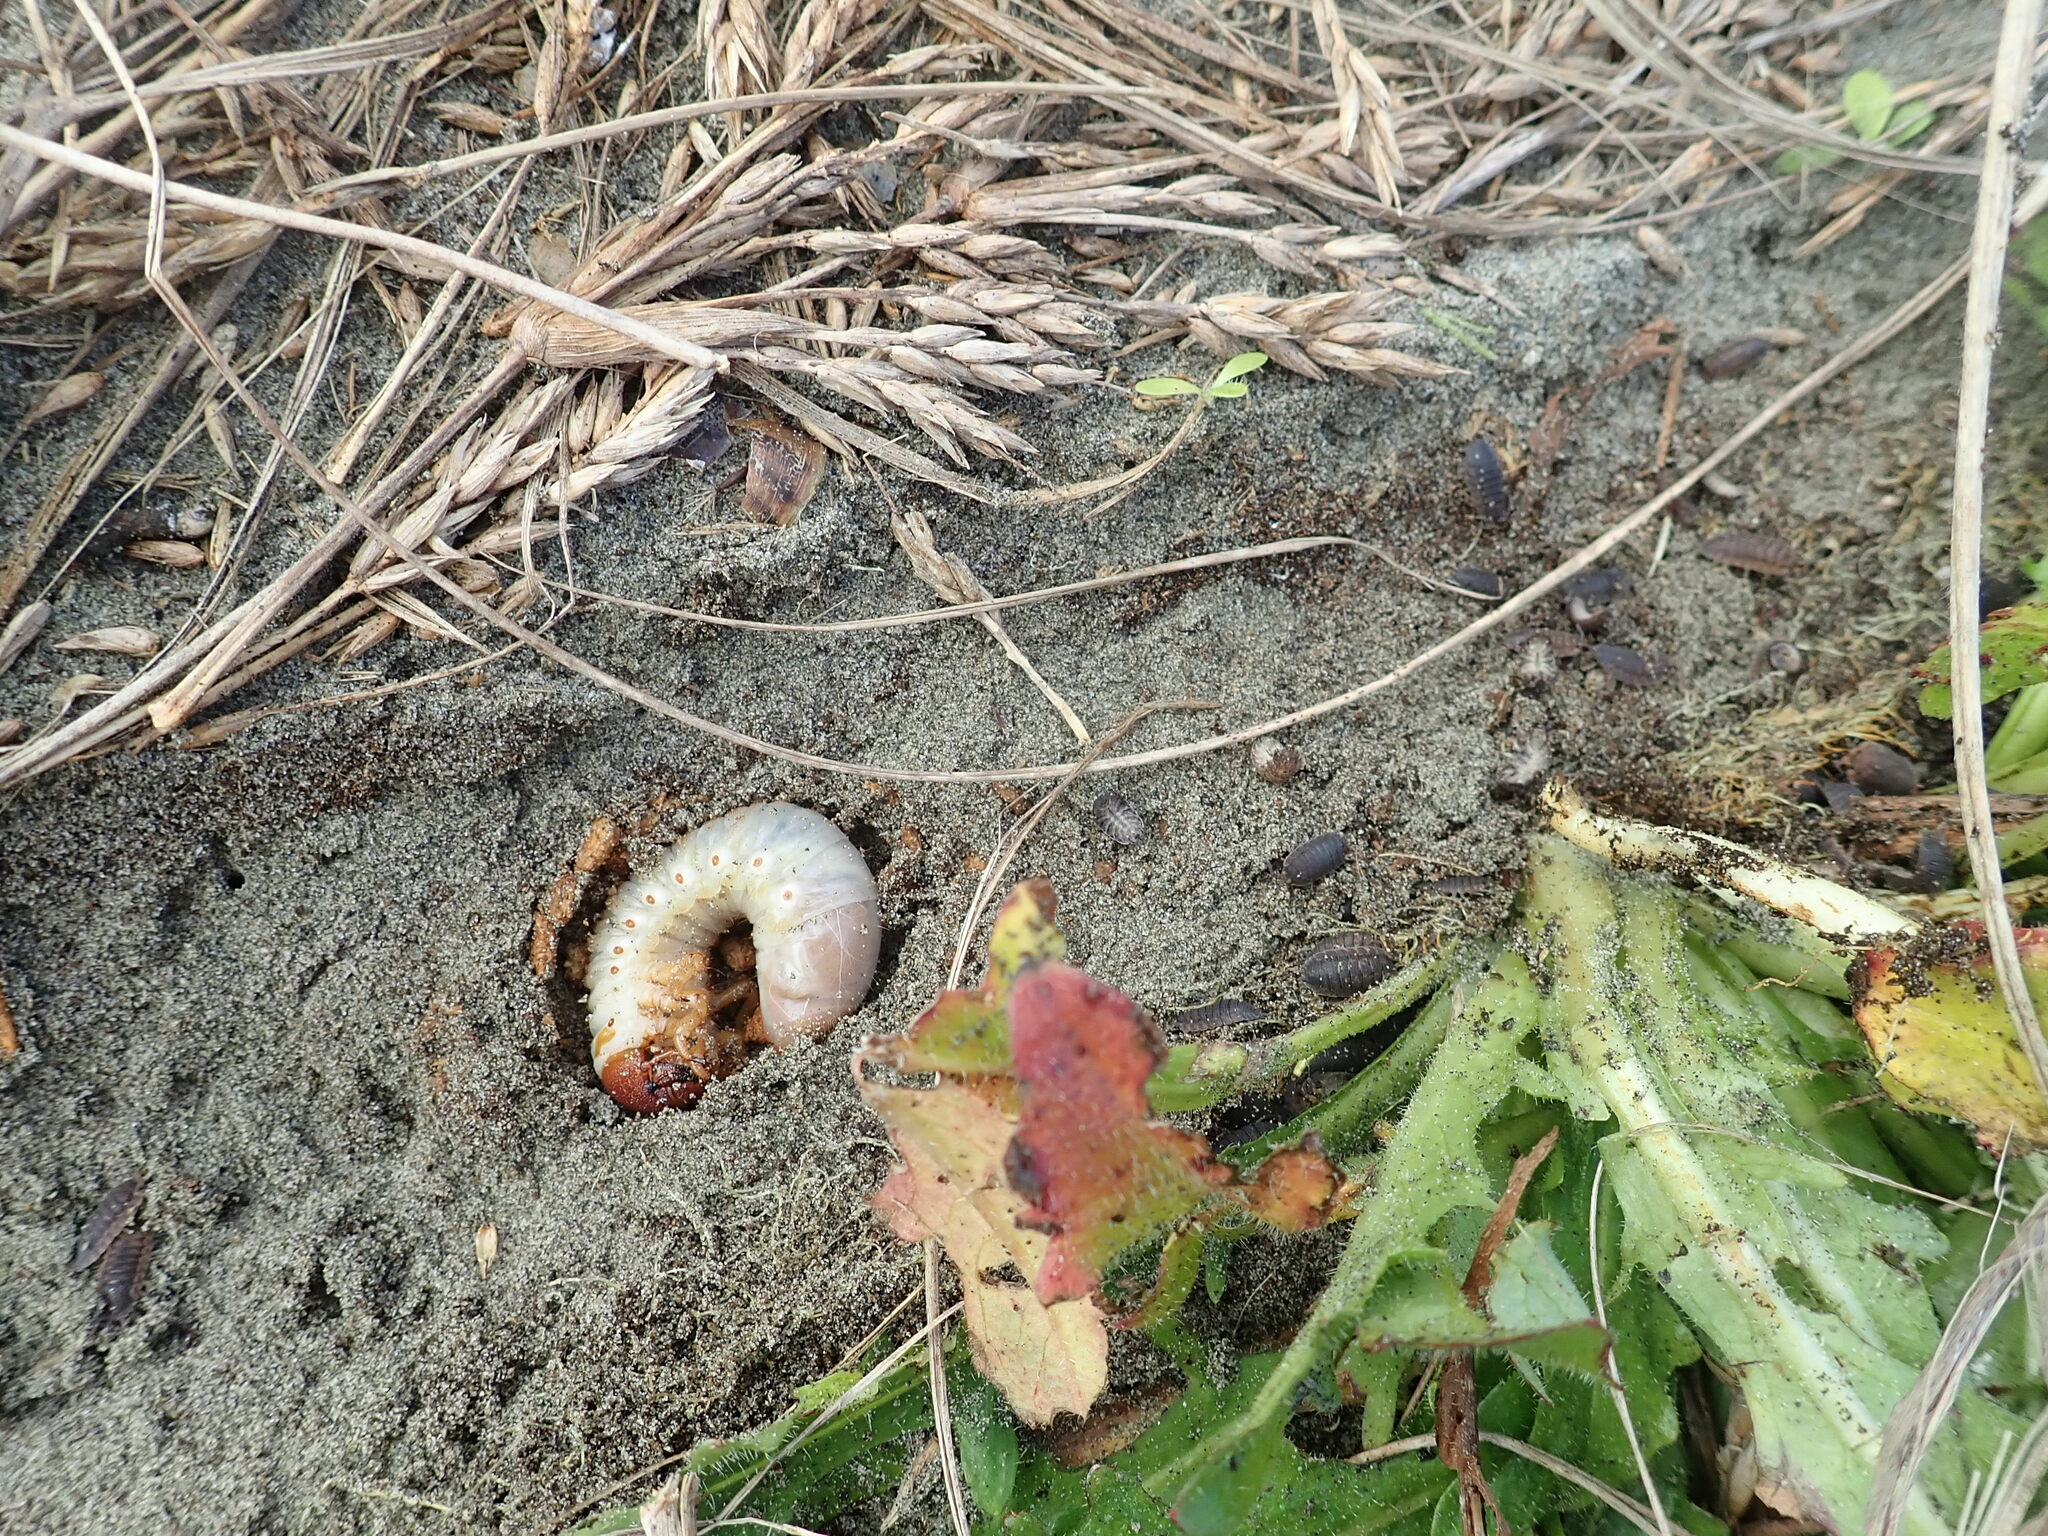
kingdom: Animalia
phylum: Arthropoda
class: Insecta
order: Coleoptera
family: Scarabaeidae
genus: Pericoptus
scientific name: Pericoptus truncatus
